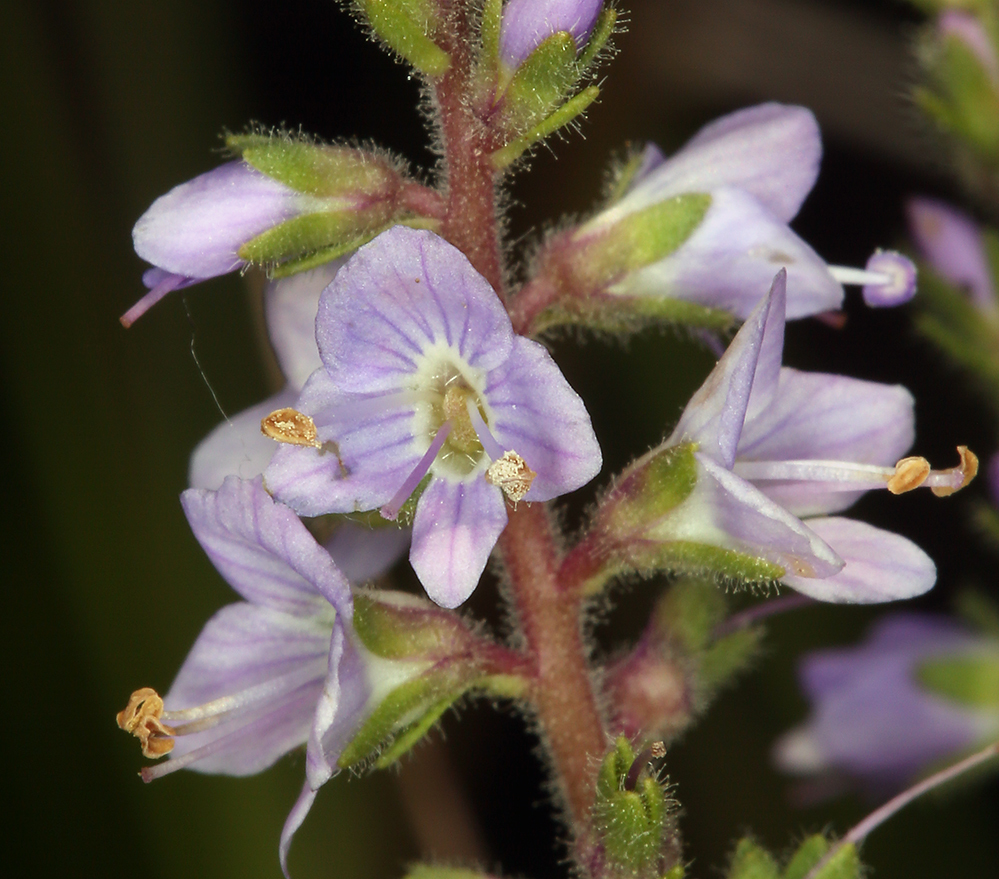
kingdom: Plantae
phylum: Tracheophyta
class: Magnoliopsida
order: Lamiales
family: Plantaginaceae
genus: Veronica
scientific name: Veronica officinalis
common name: Common speedwell
